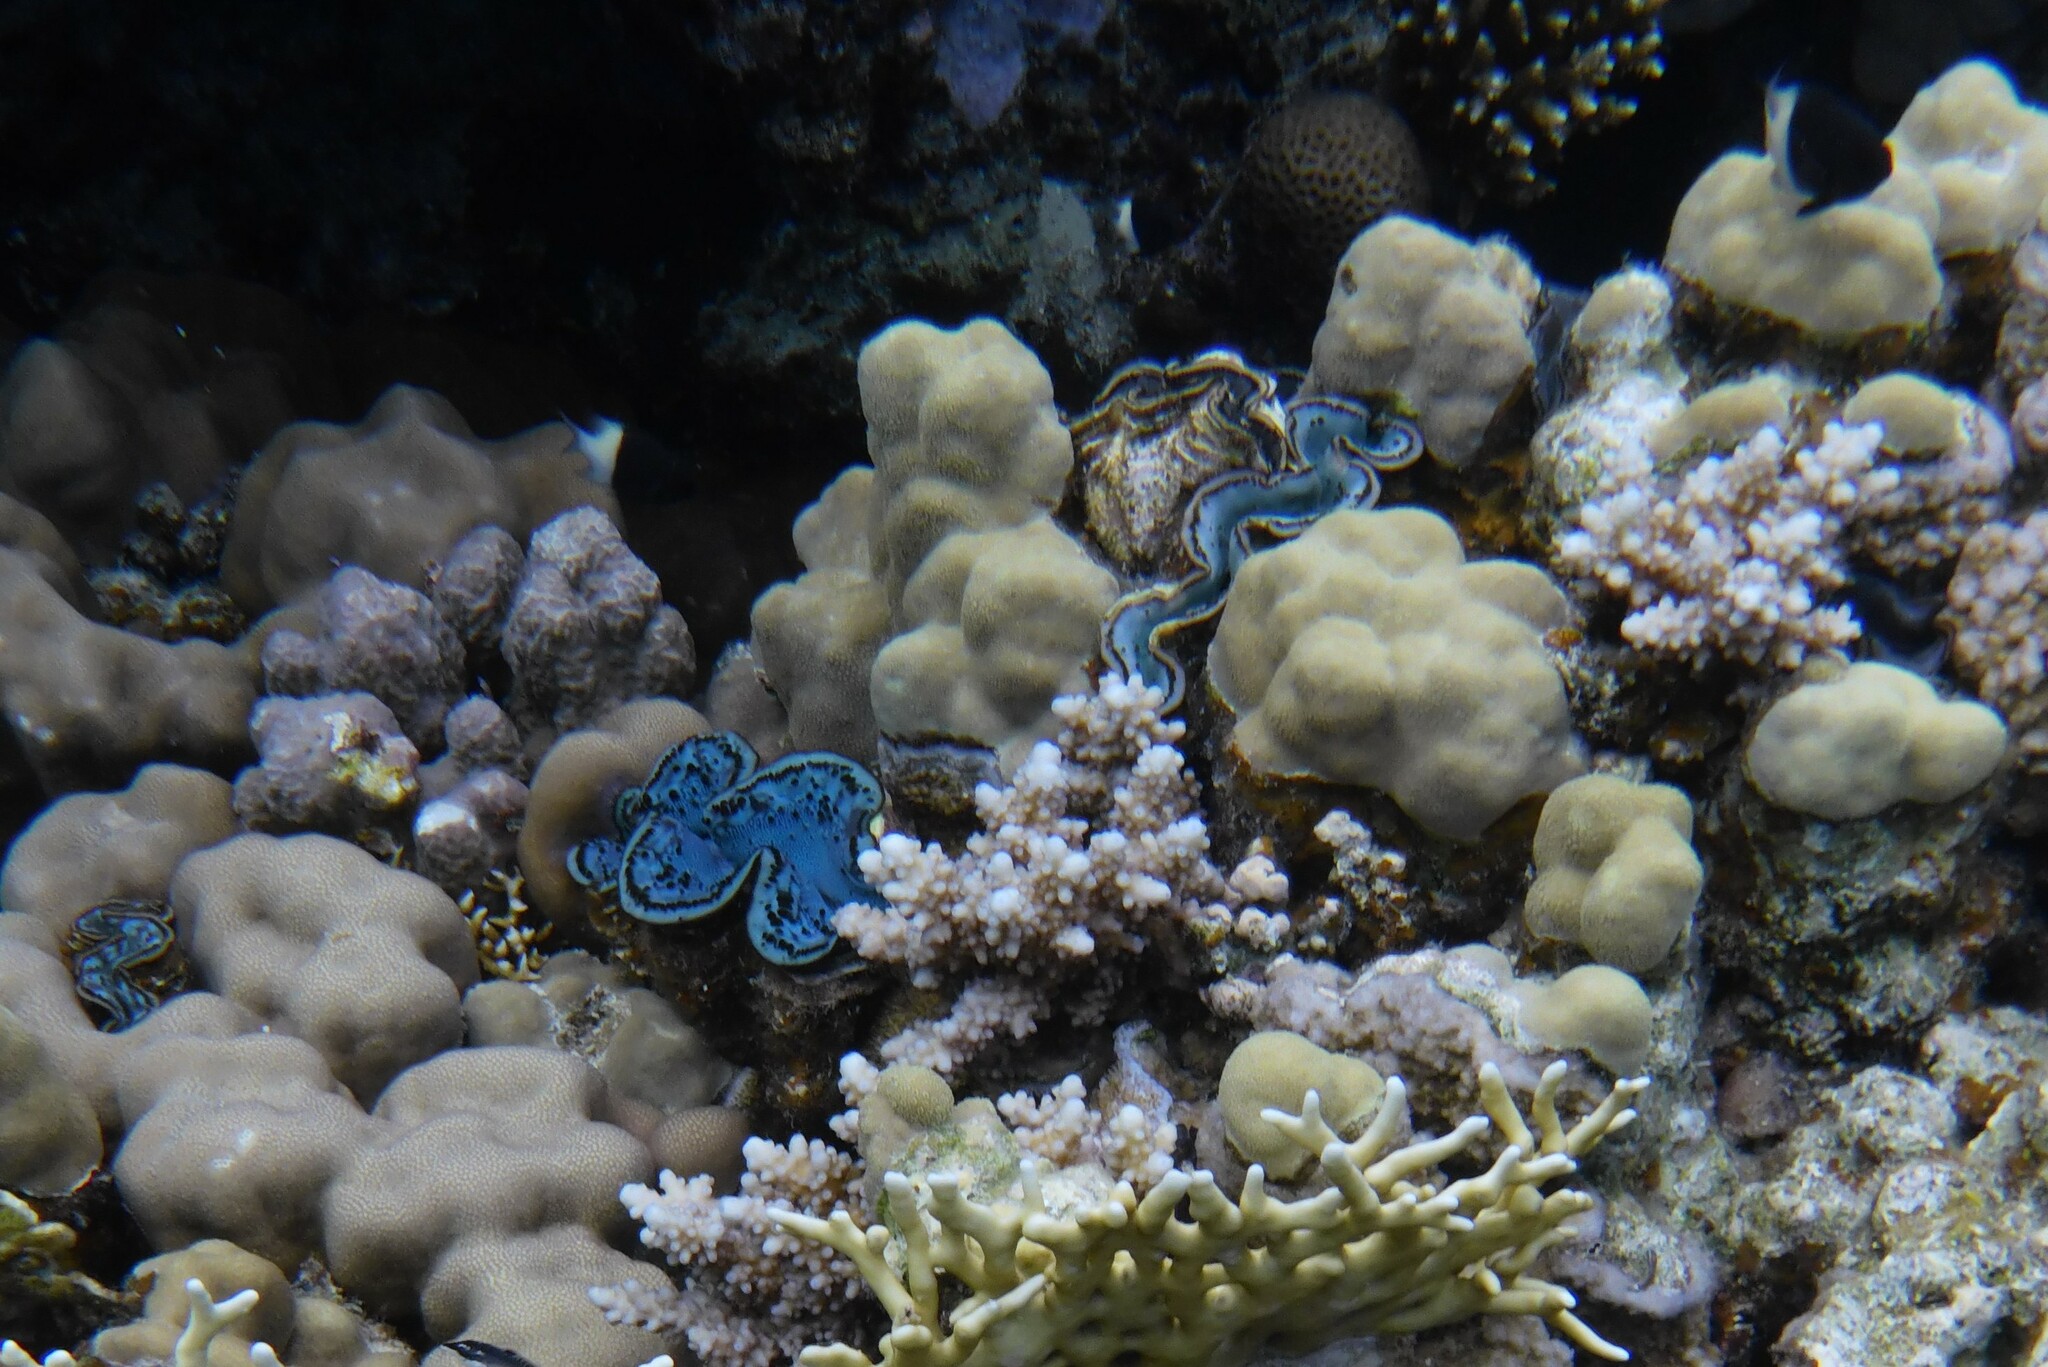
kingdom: Animalia
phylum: Mollusca
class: Bivalvia
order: Cardiida
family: Cardiidae
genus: Tridacna
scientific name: Tridacna maxima
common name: Small giant clam
